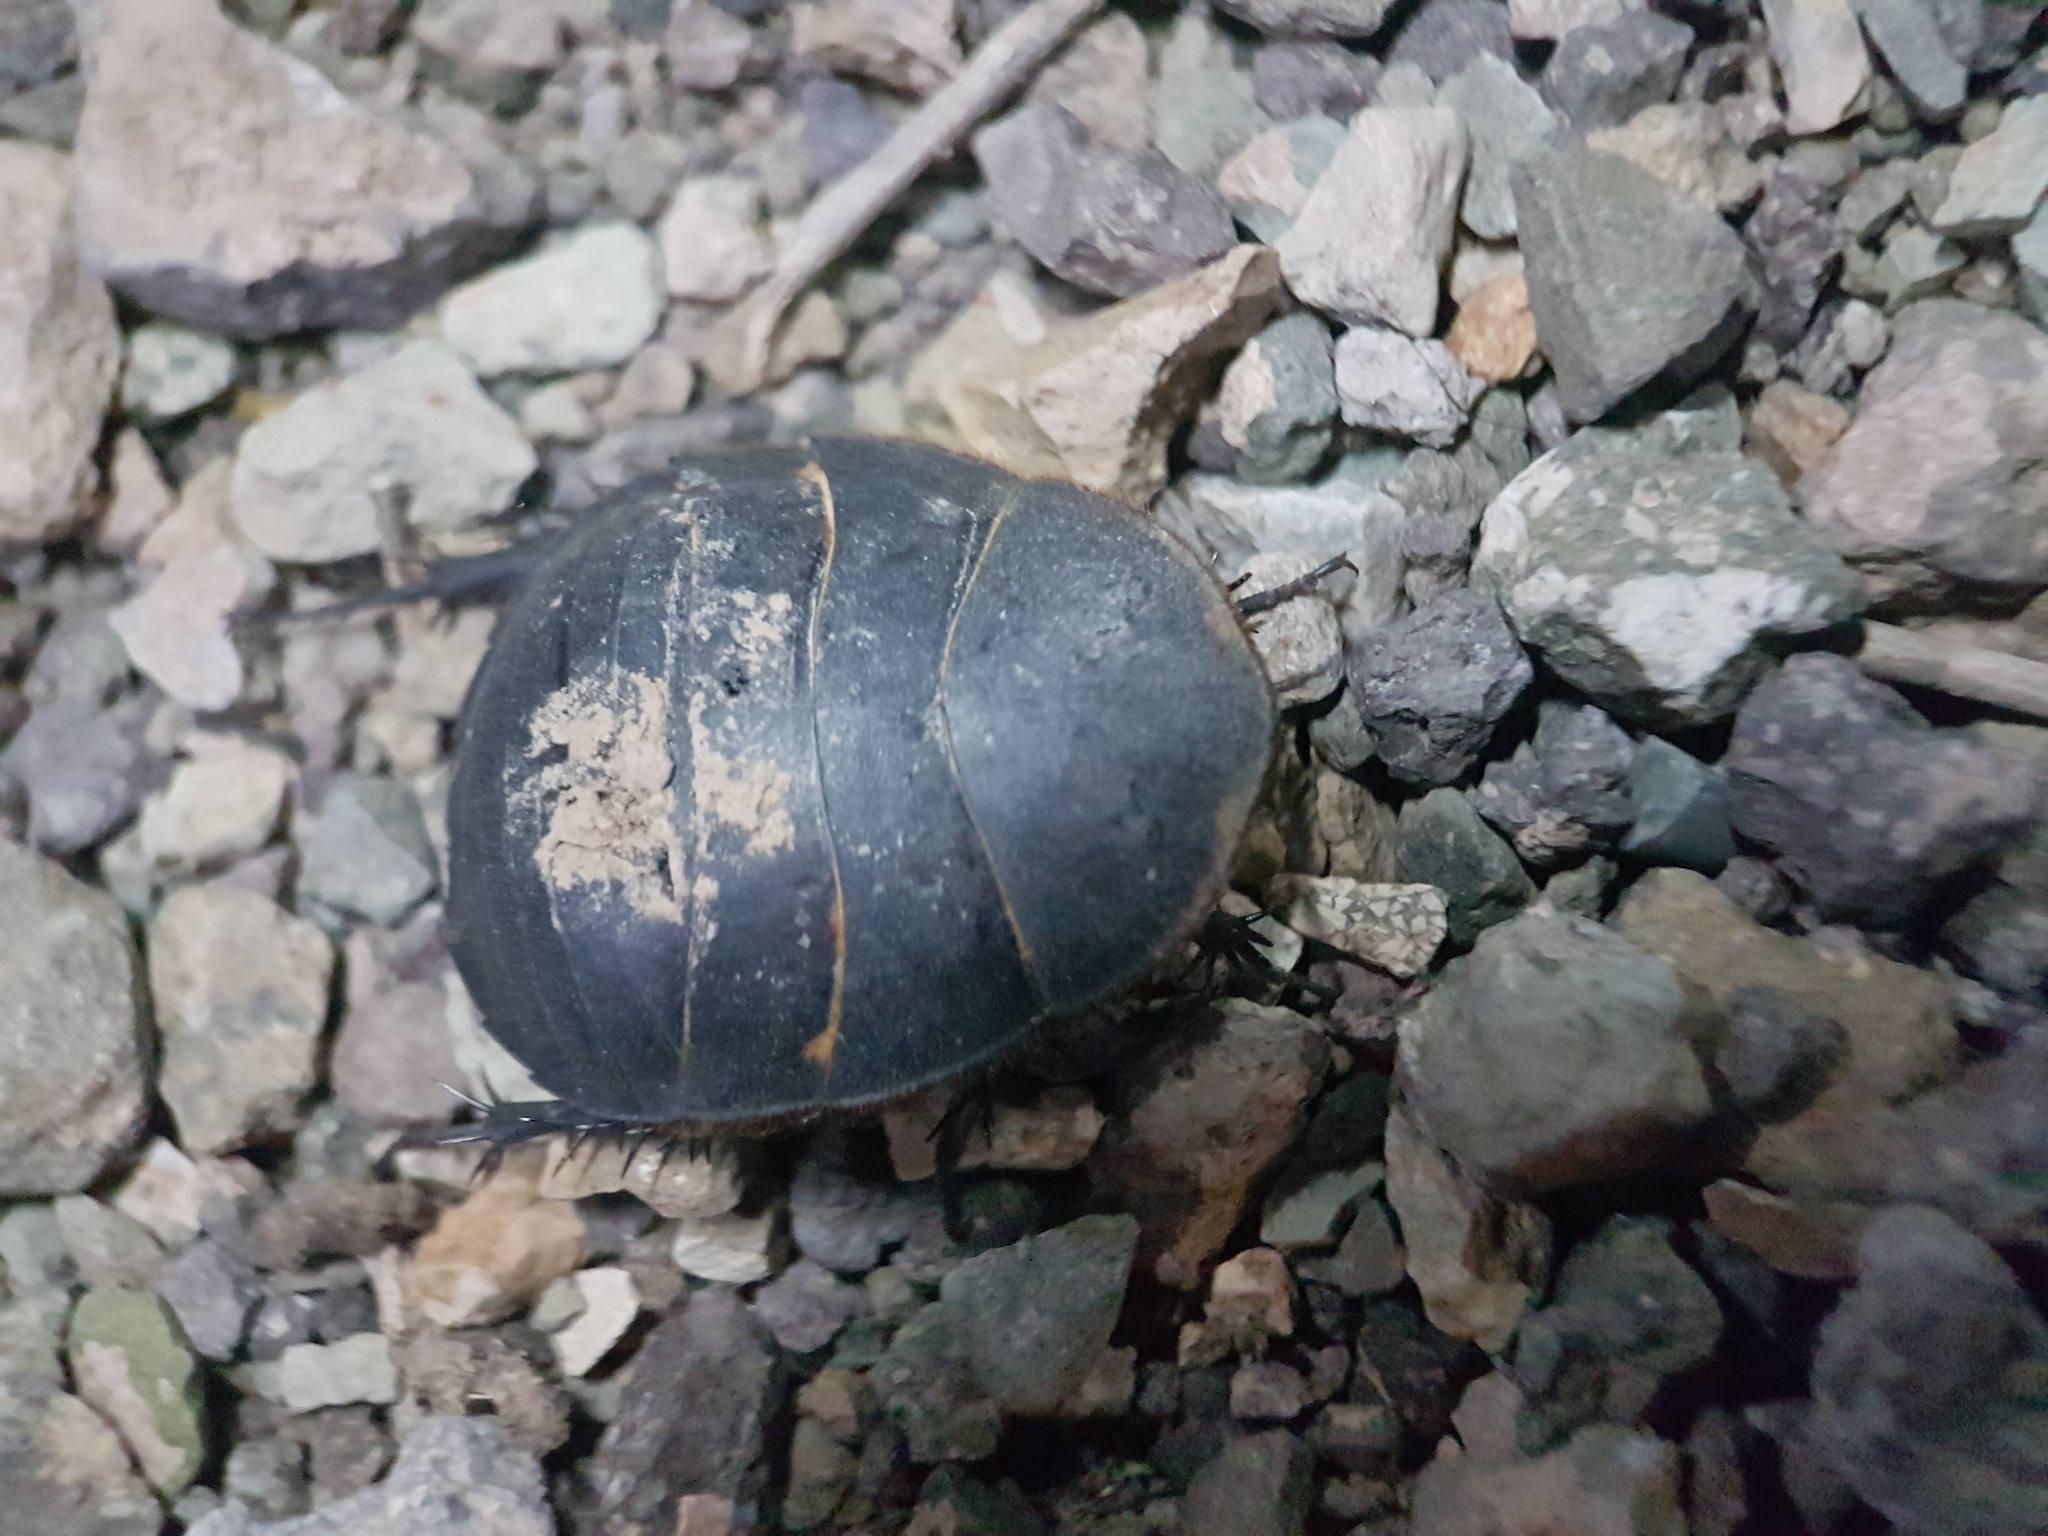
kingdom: Animalia
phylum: Arthropoda
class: Insecta
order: Blattodea
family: Corydiidae
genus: Polyphaga
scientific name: Polyphaga aegyptiaca
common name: Egyptian cockroach
